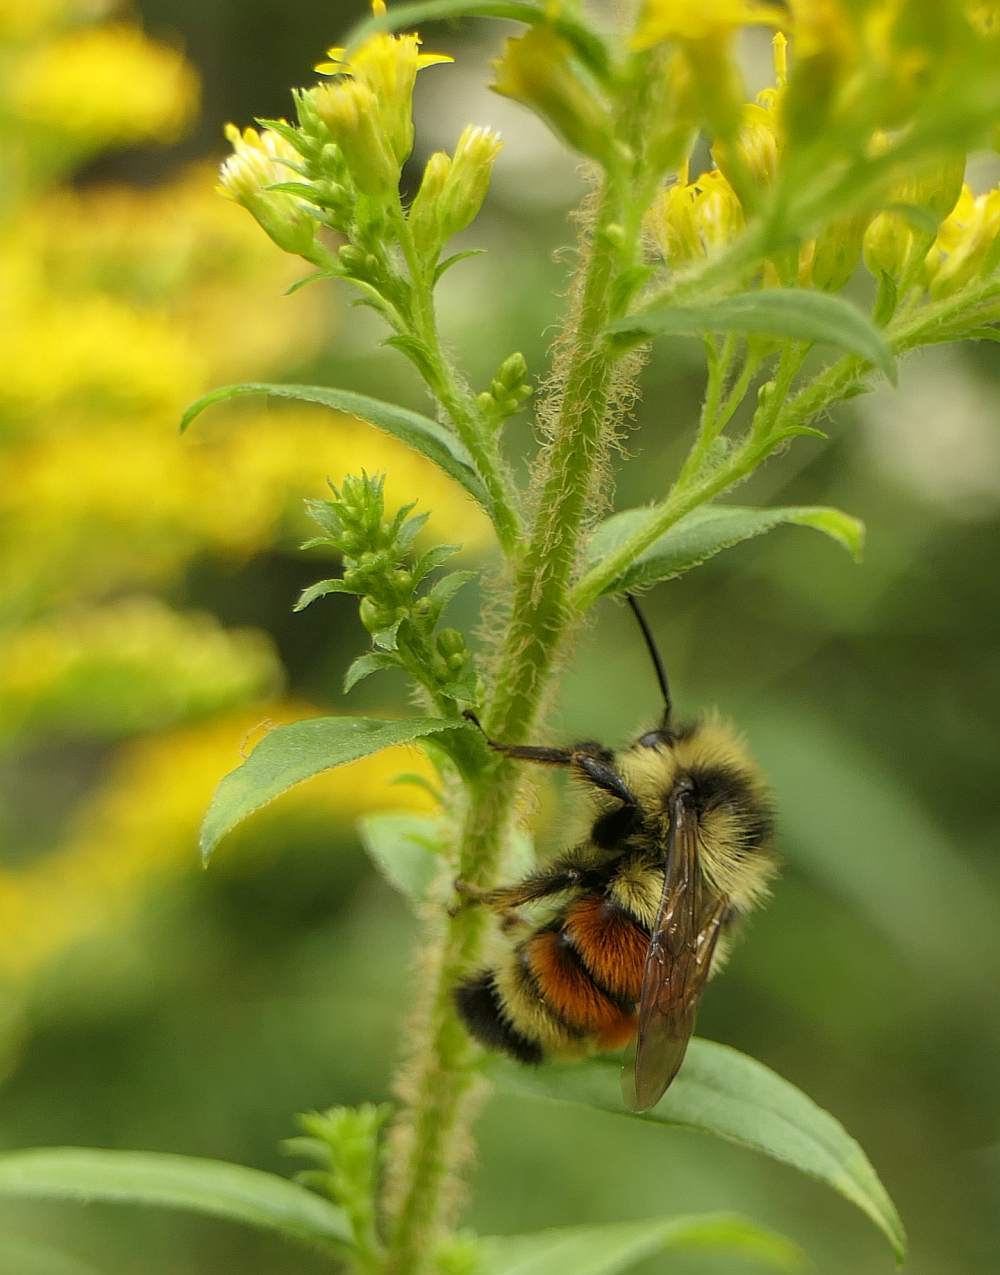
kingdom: Animalia
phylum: Arthropoda
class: Insecta
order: Hymenoptera
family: Apidae
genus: Bombus
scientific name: Bombus ternarius
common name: Tri-colored bumble bee
